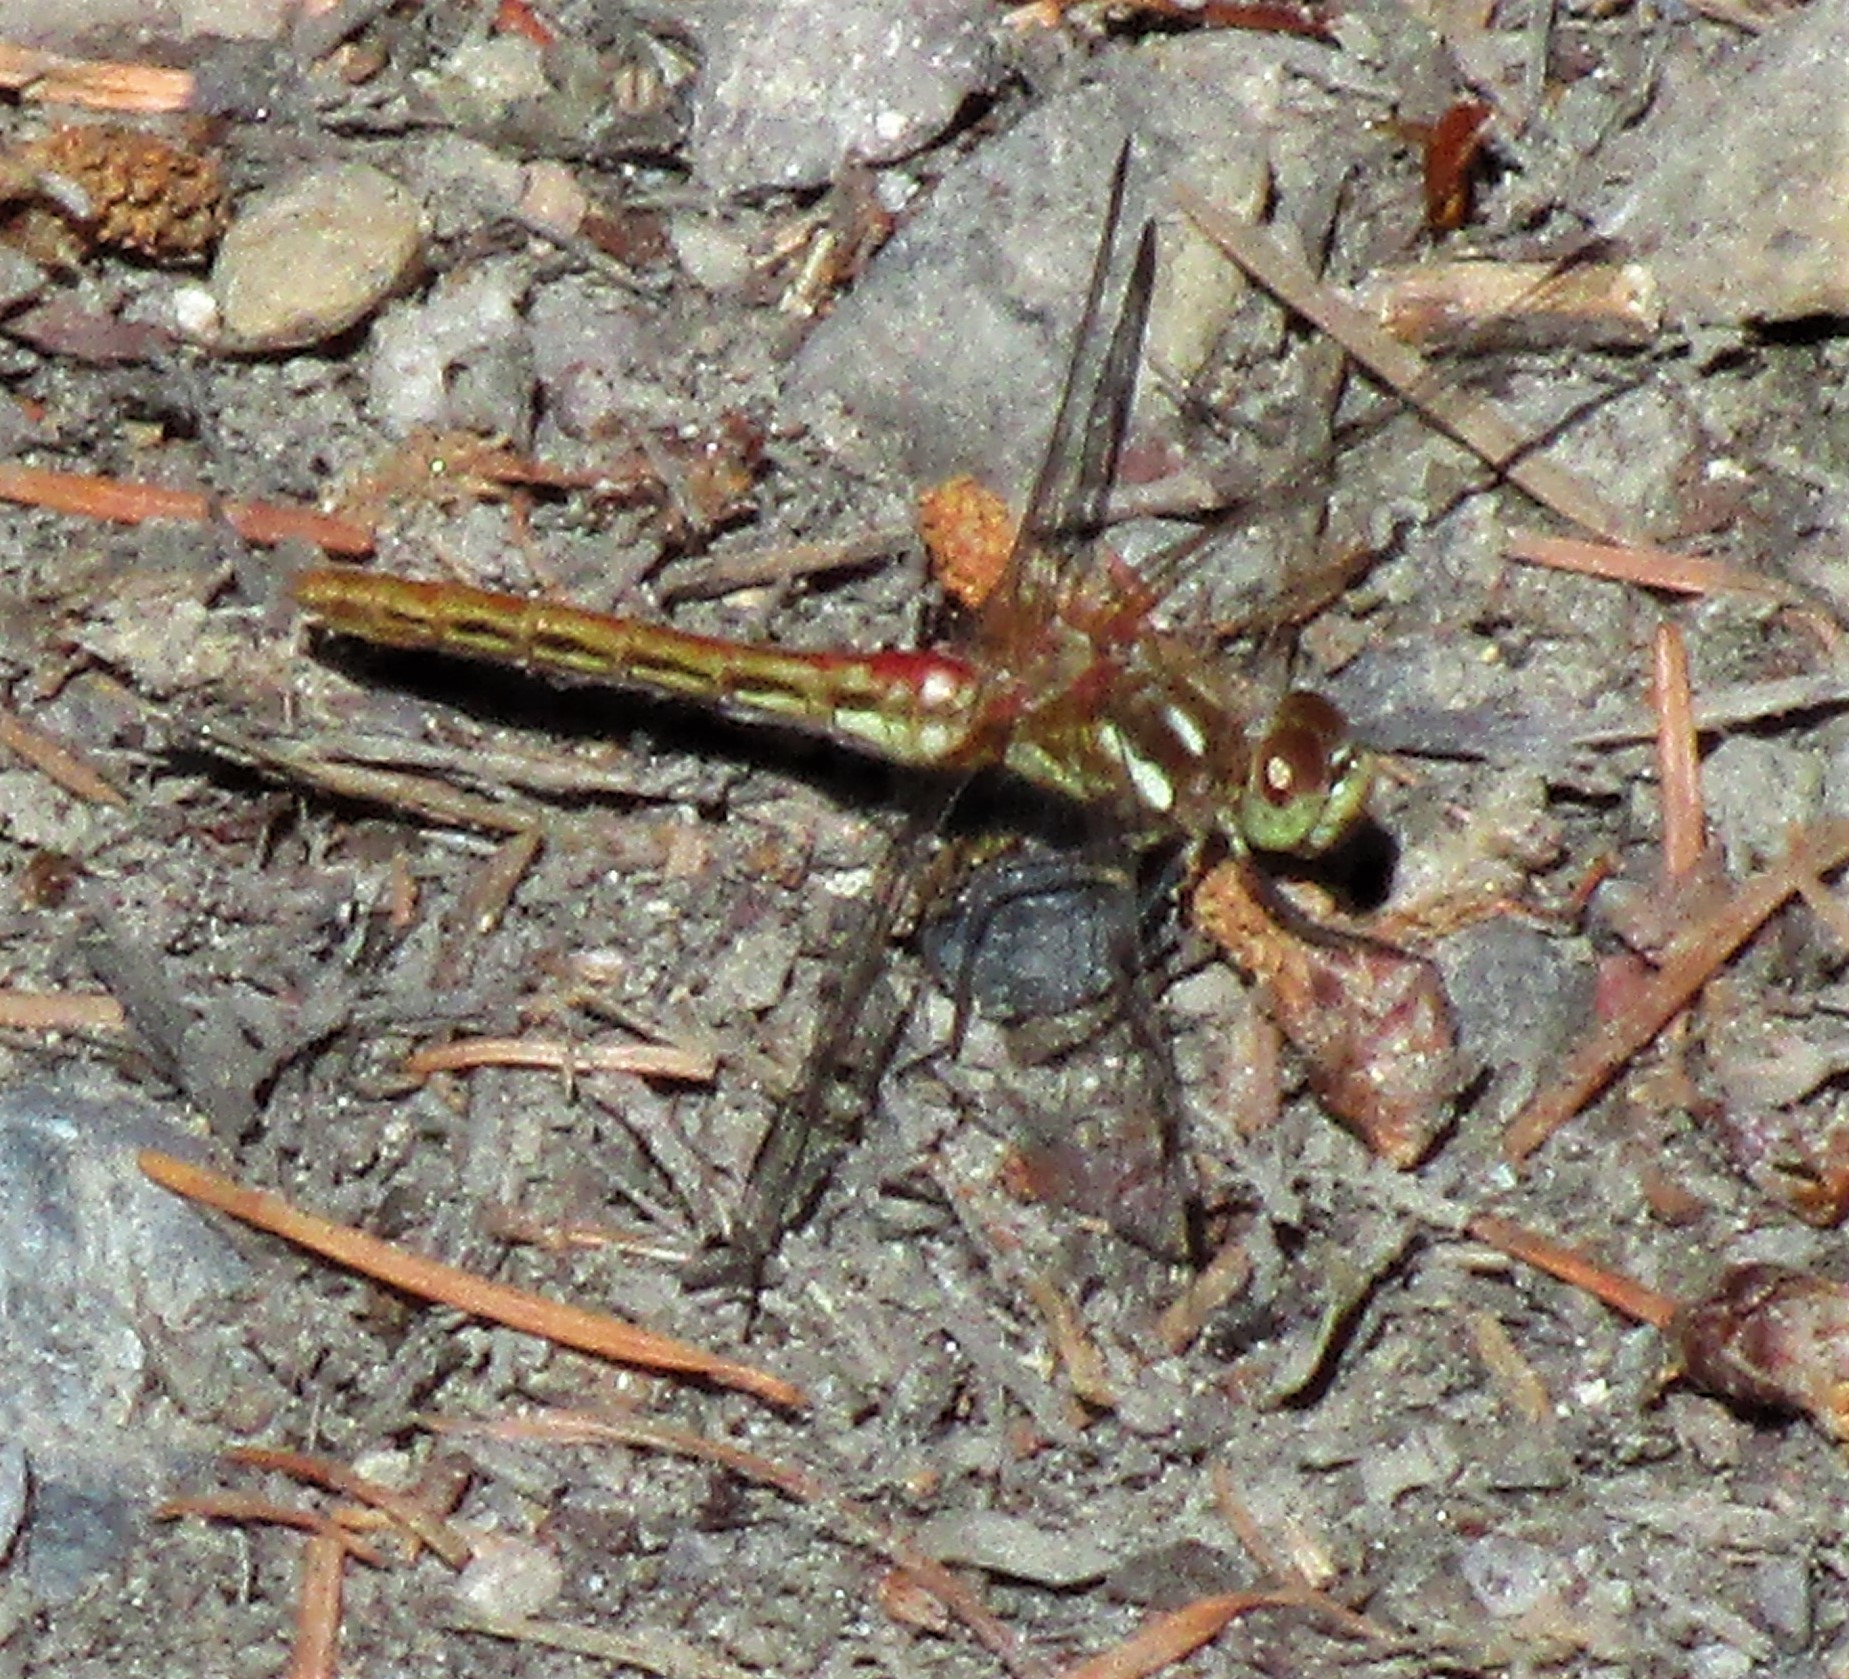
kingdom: Animalia
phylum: Arthropoda
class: Insecta
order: Odonata
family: Libellulidae
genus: Sympetrum
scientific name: Sympetrum pallipes
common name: Striped meadowhawk
